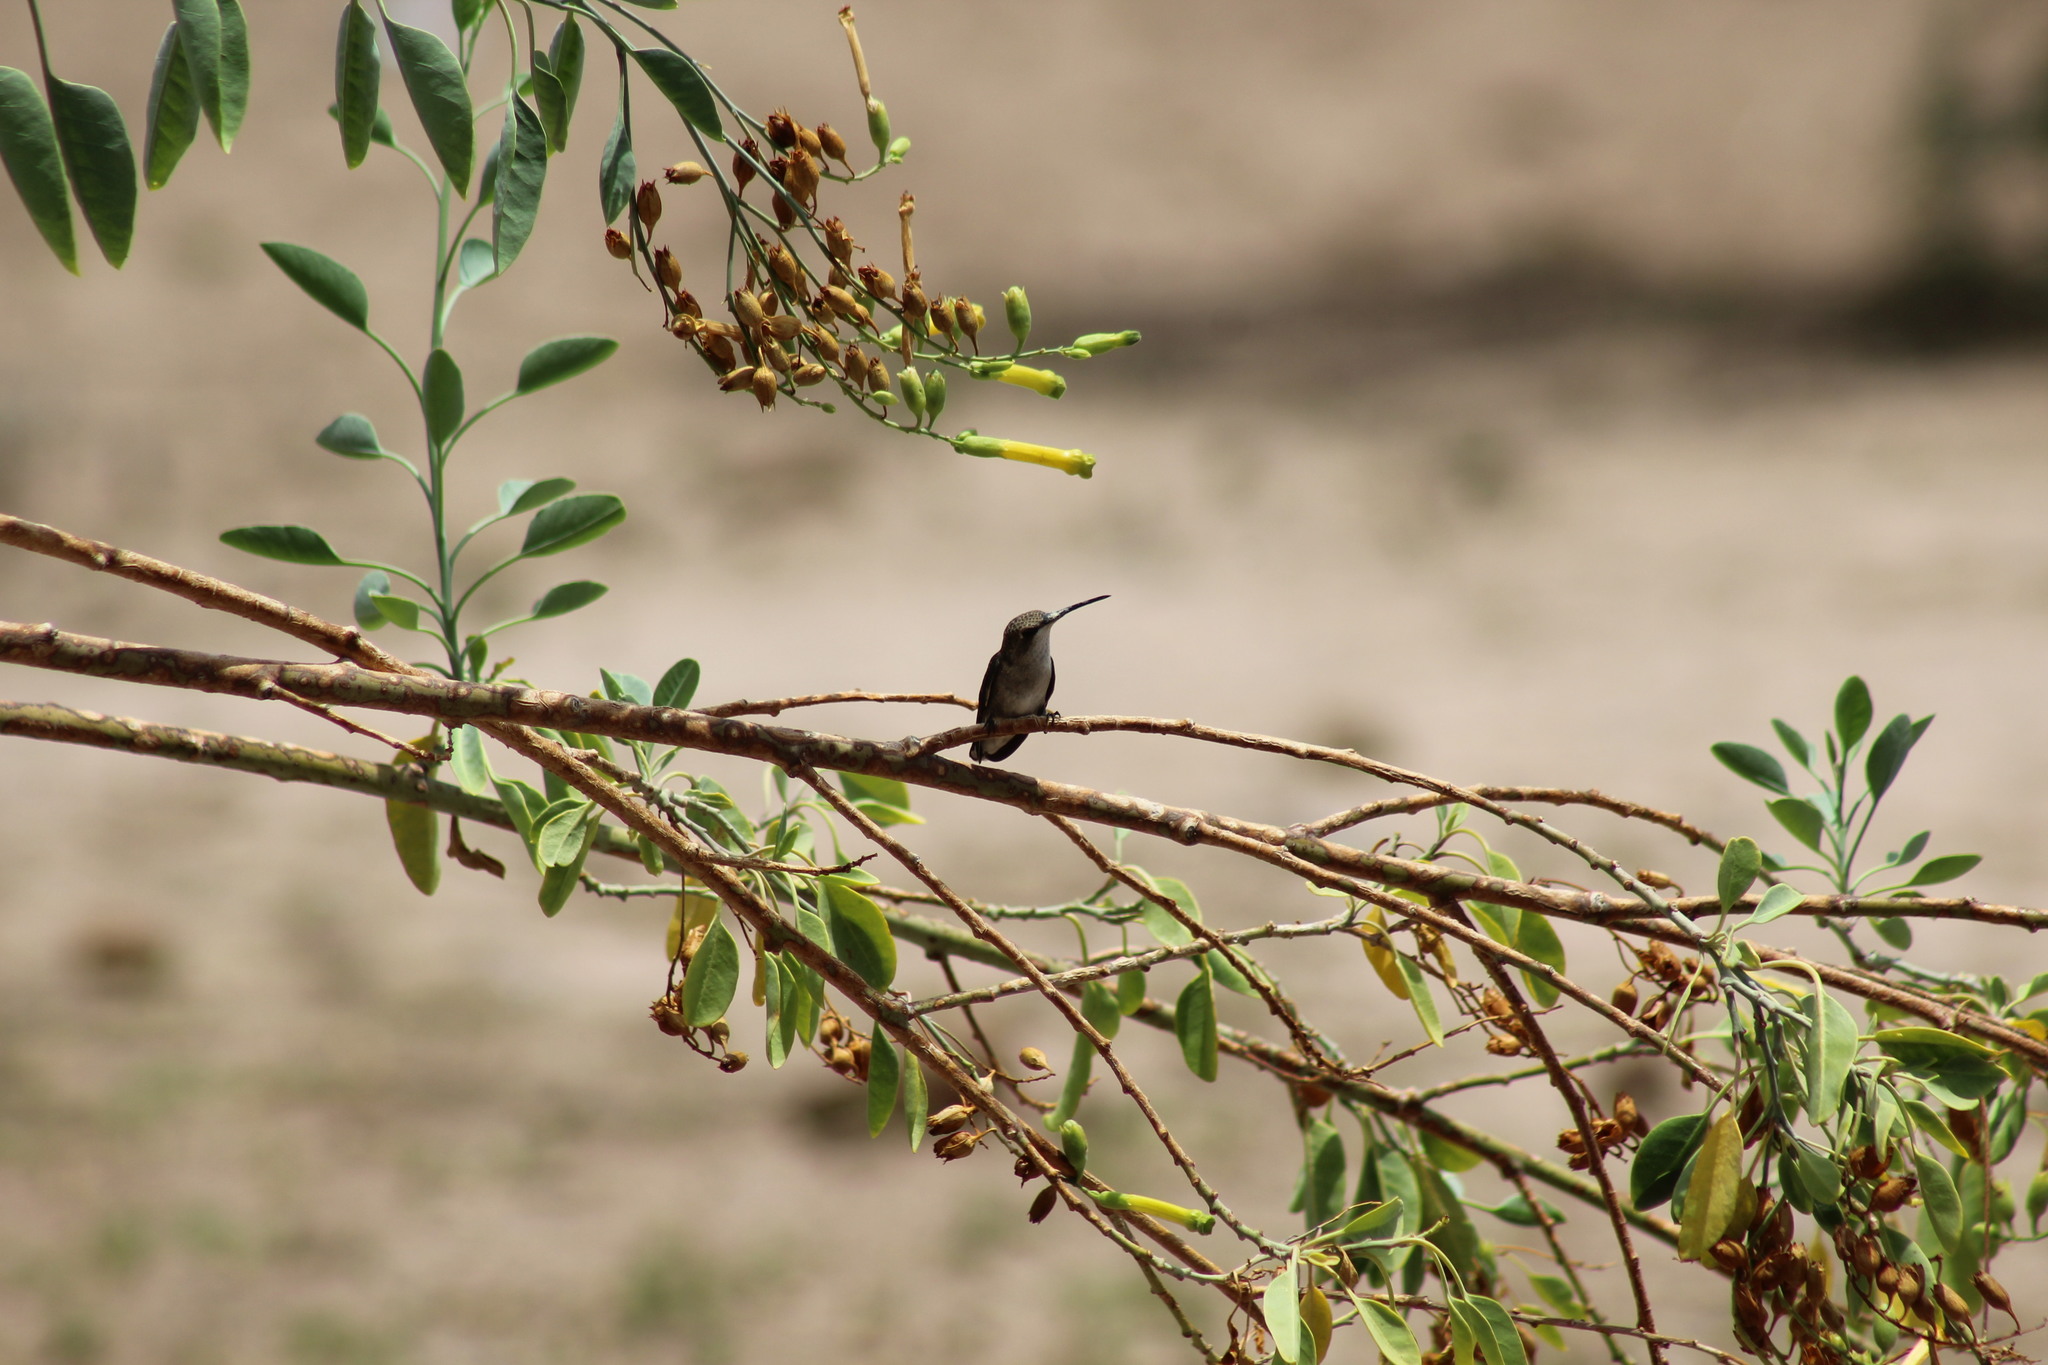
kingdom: Animalia
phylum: Chordata
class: Aves
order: Apodiformes
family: Trochilidae
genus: Archilochus
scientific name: Archilochus alexandri
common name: Black-chinned hummingbird
